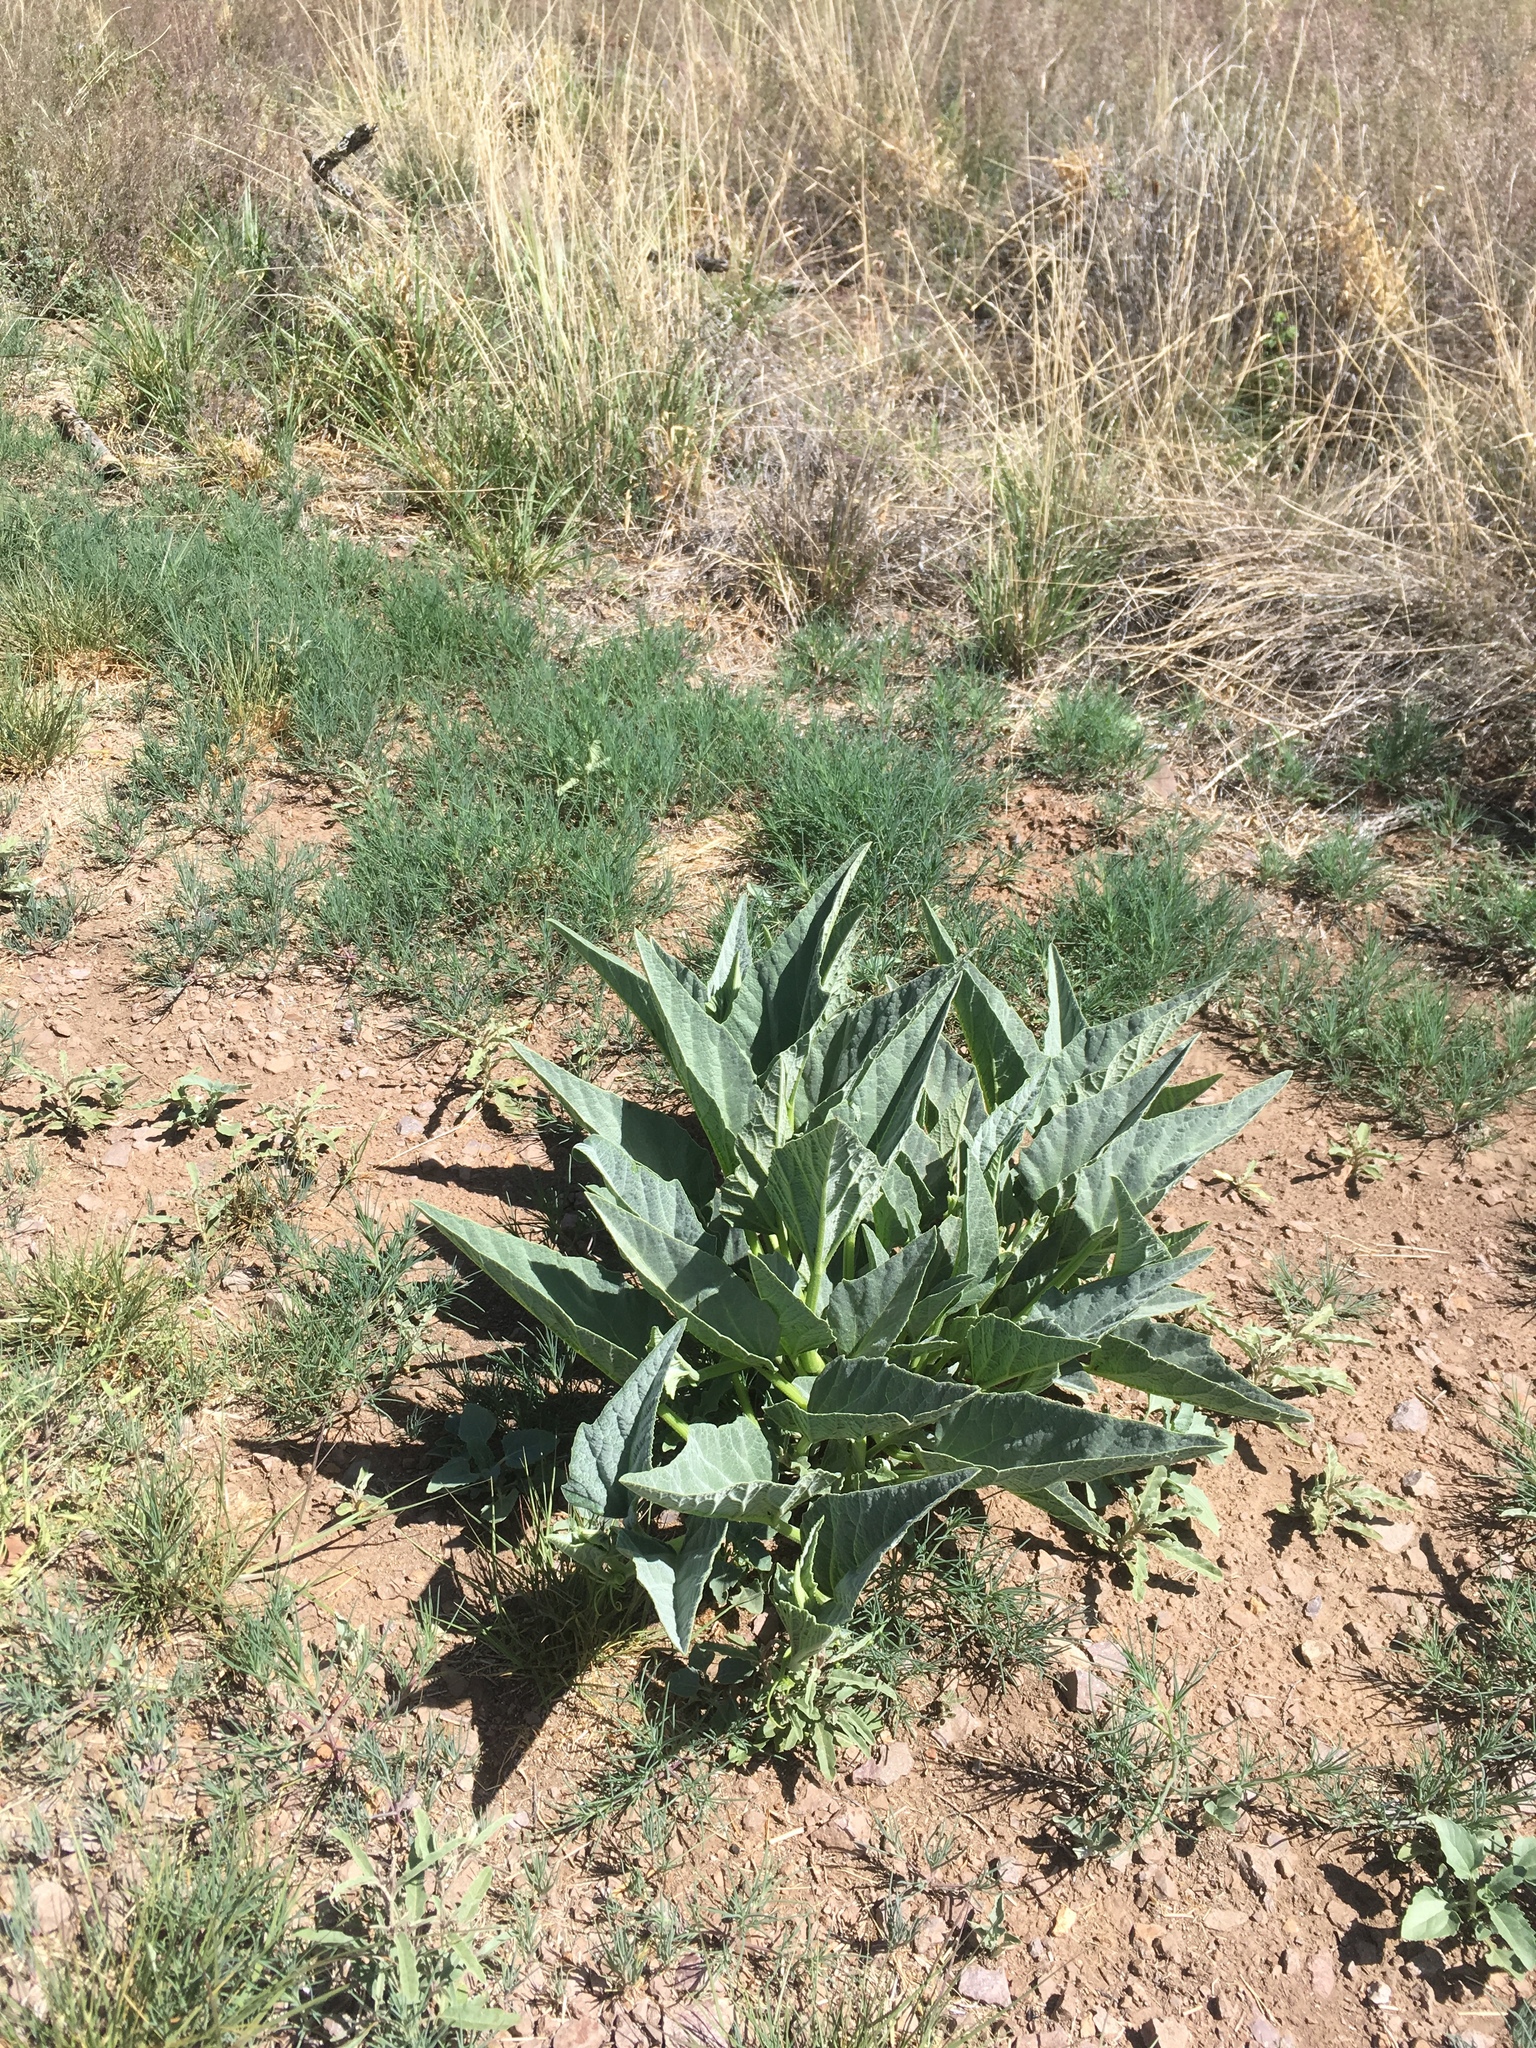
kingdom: Plantae
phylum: Tracheophyta
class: Magnoliopsida
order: Cucurbitales
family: Cucurbitaceae
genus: Cucurbita
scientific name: Cucurbita foetidissima
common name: Buffalo gourd
